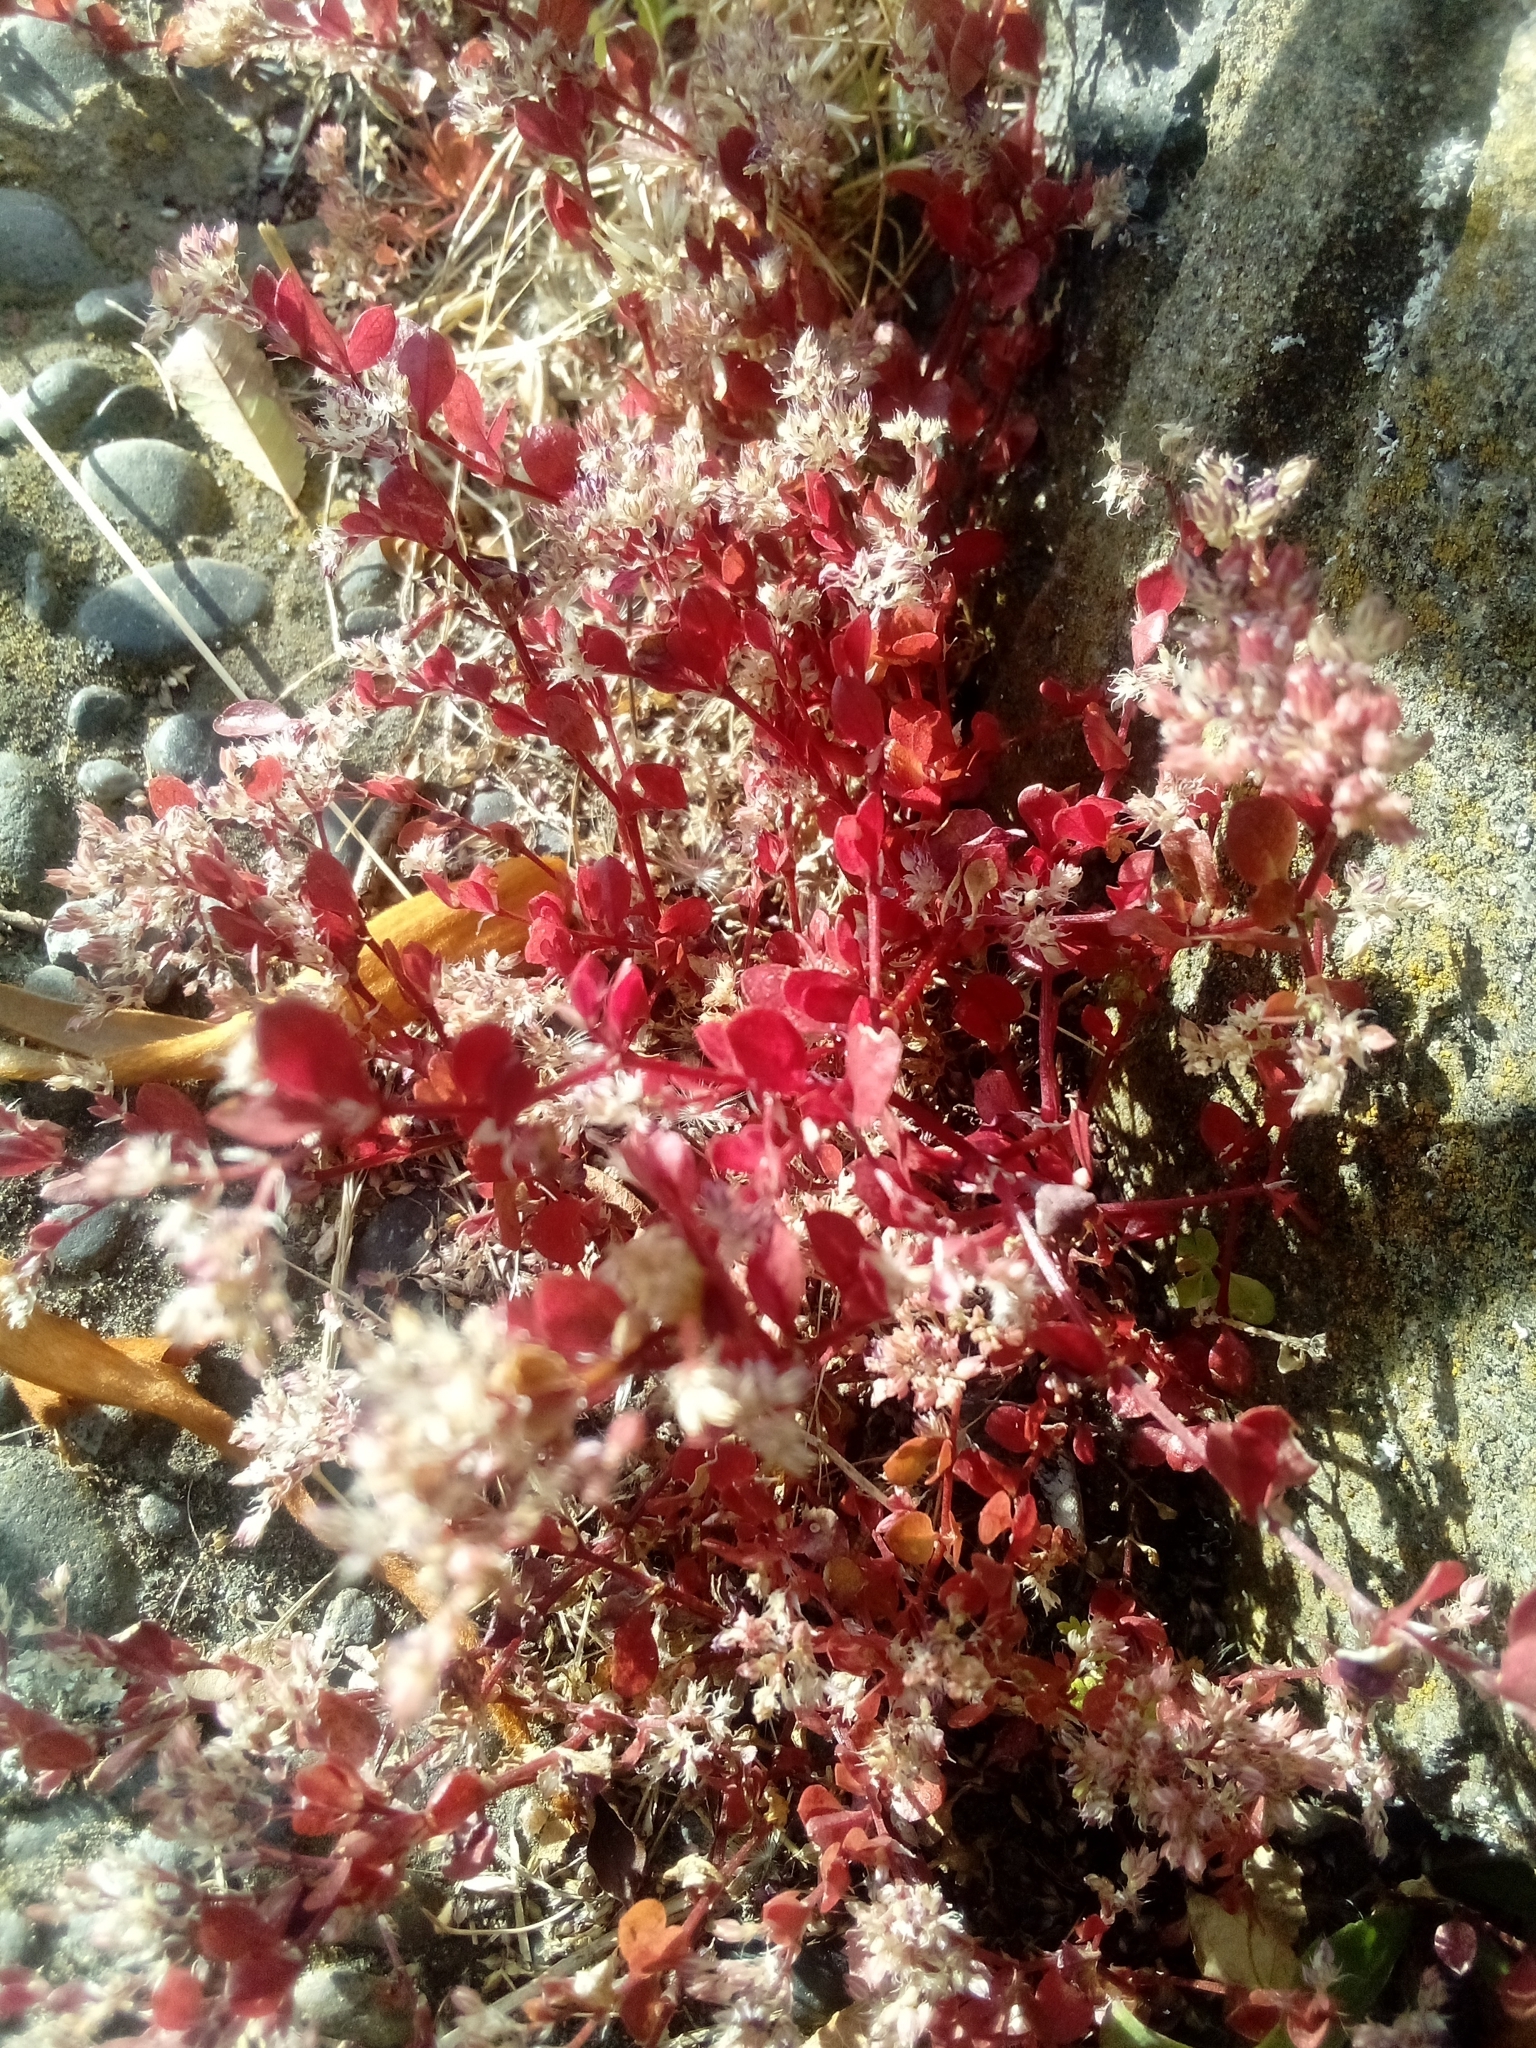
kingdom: Plantae
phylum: Tracheophyta
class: Magnoliopsida
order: Caryophyllales
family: Caryophyllaceae
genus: Polycarpon
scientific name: Polycarpon tetraphyllum
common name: Four-leaved all-seed
